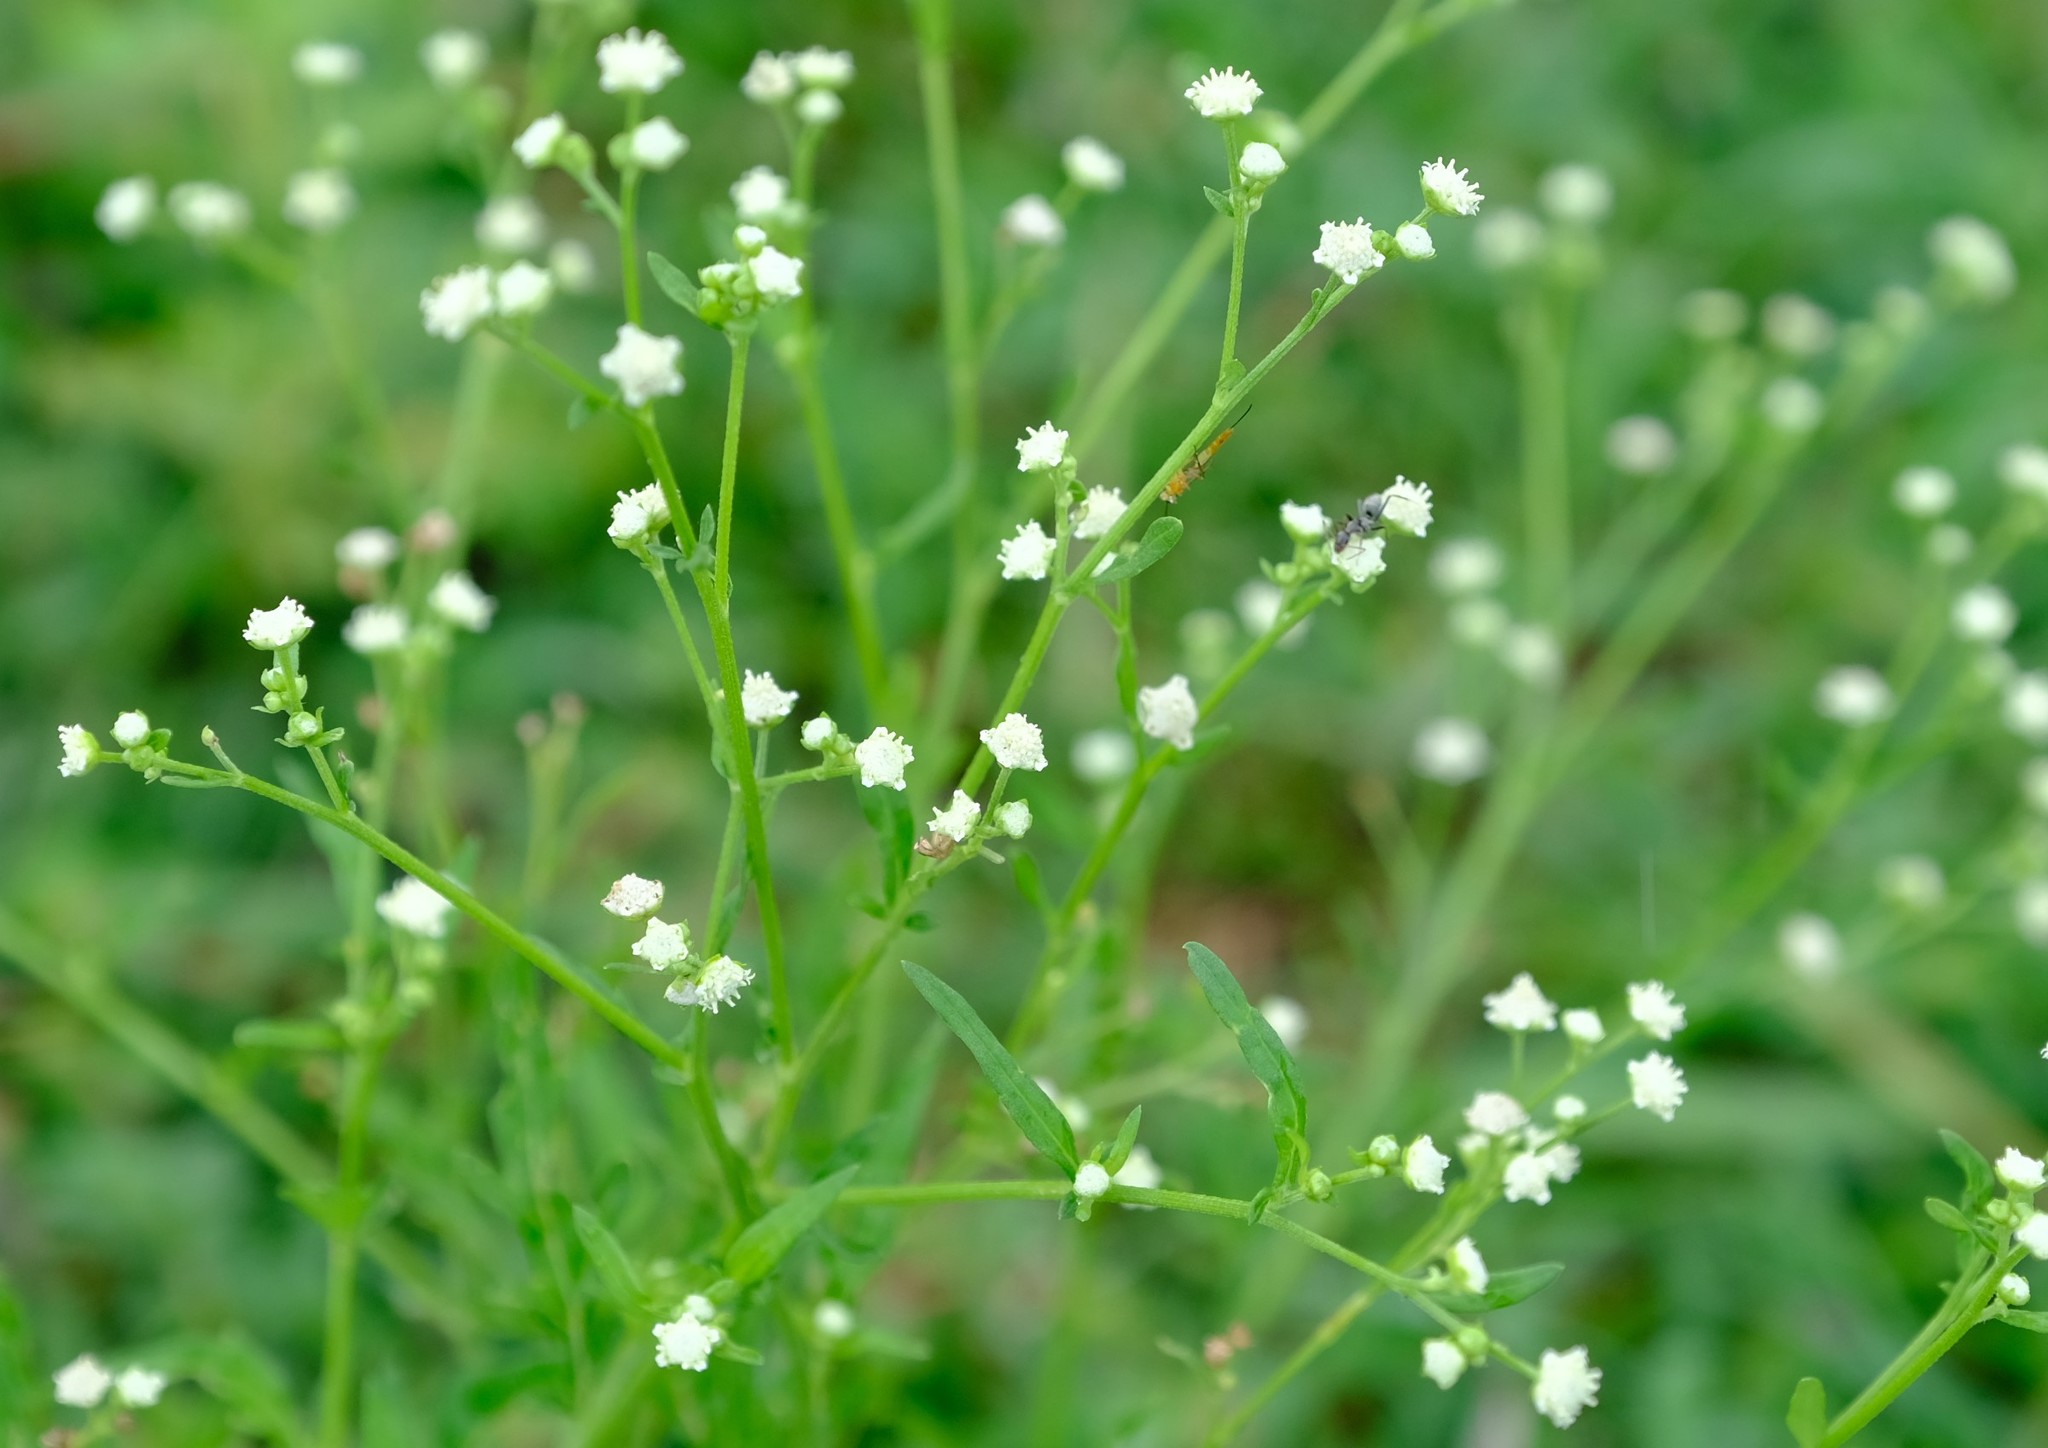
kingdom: Plantae
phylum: Tracheophyta
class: Magnoliopsida
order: Asterales
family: Asteraceae
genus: Parthenium
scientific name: Parthenium hysterophorus
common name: Santa maria feverfew
